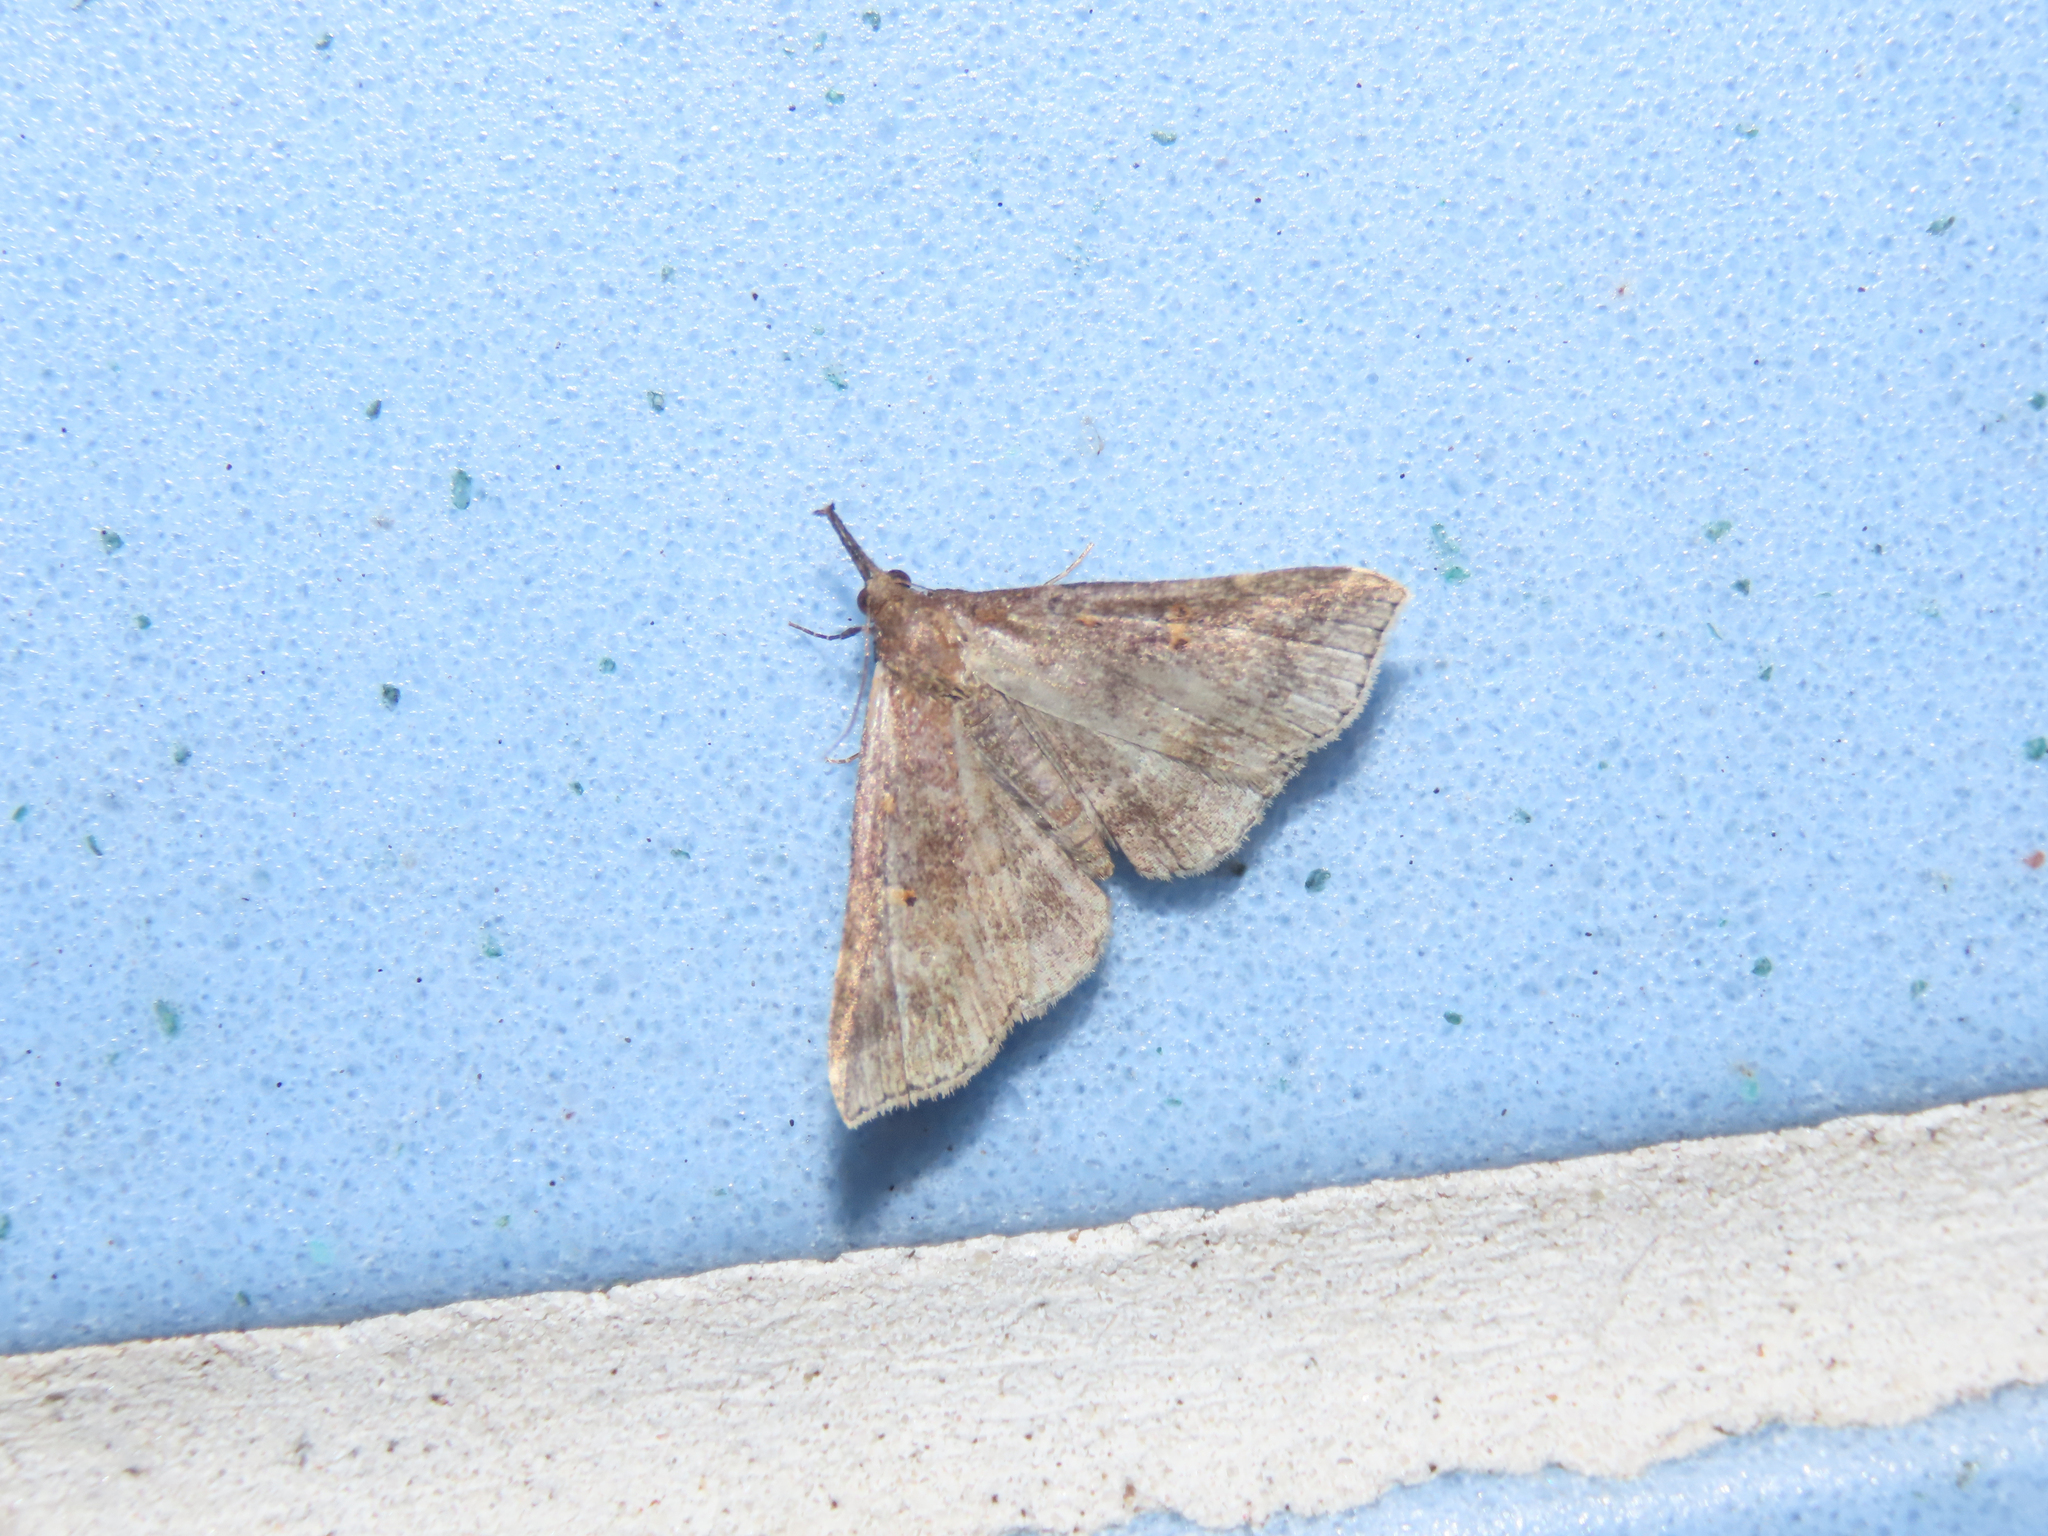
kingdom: Animalia
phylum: Arthropoda
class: Insecta
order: Lepidoptera
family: Erebidae
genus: Renia
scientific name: Renia factiosalis
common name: Sociable renia moth
